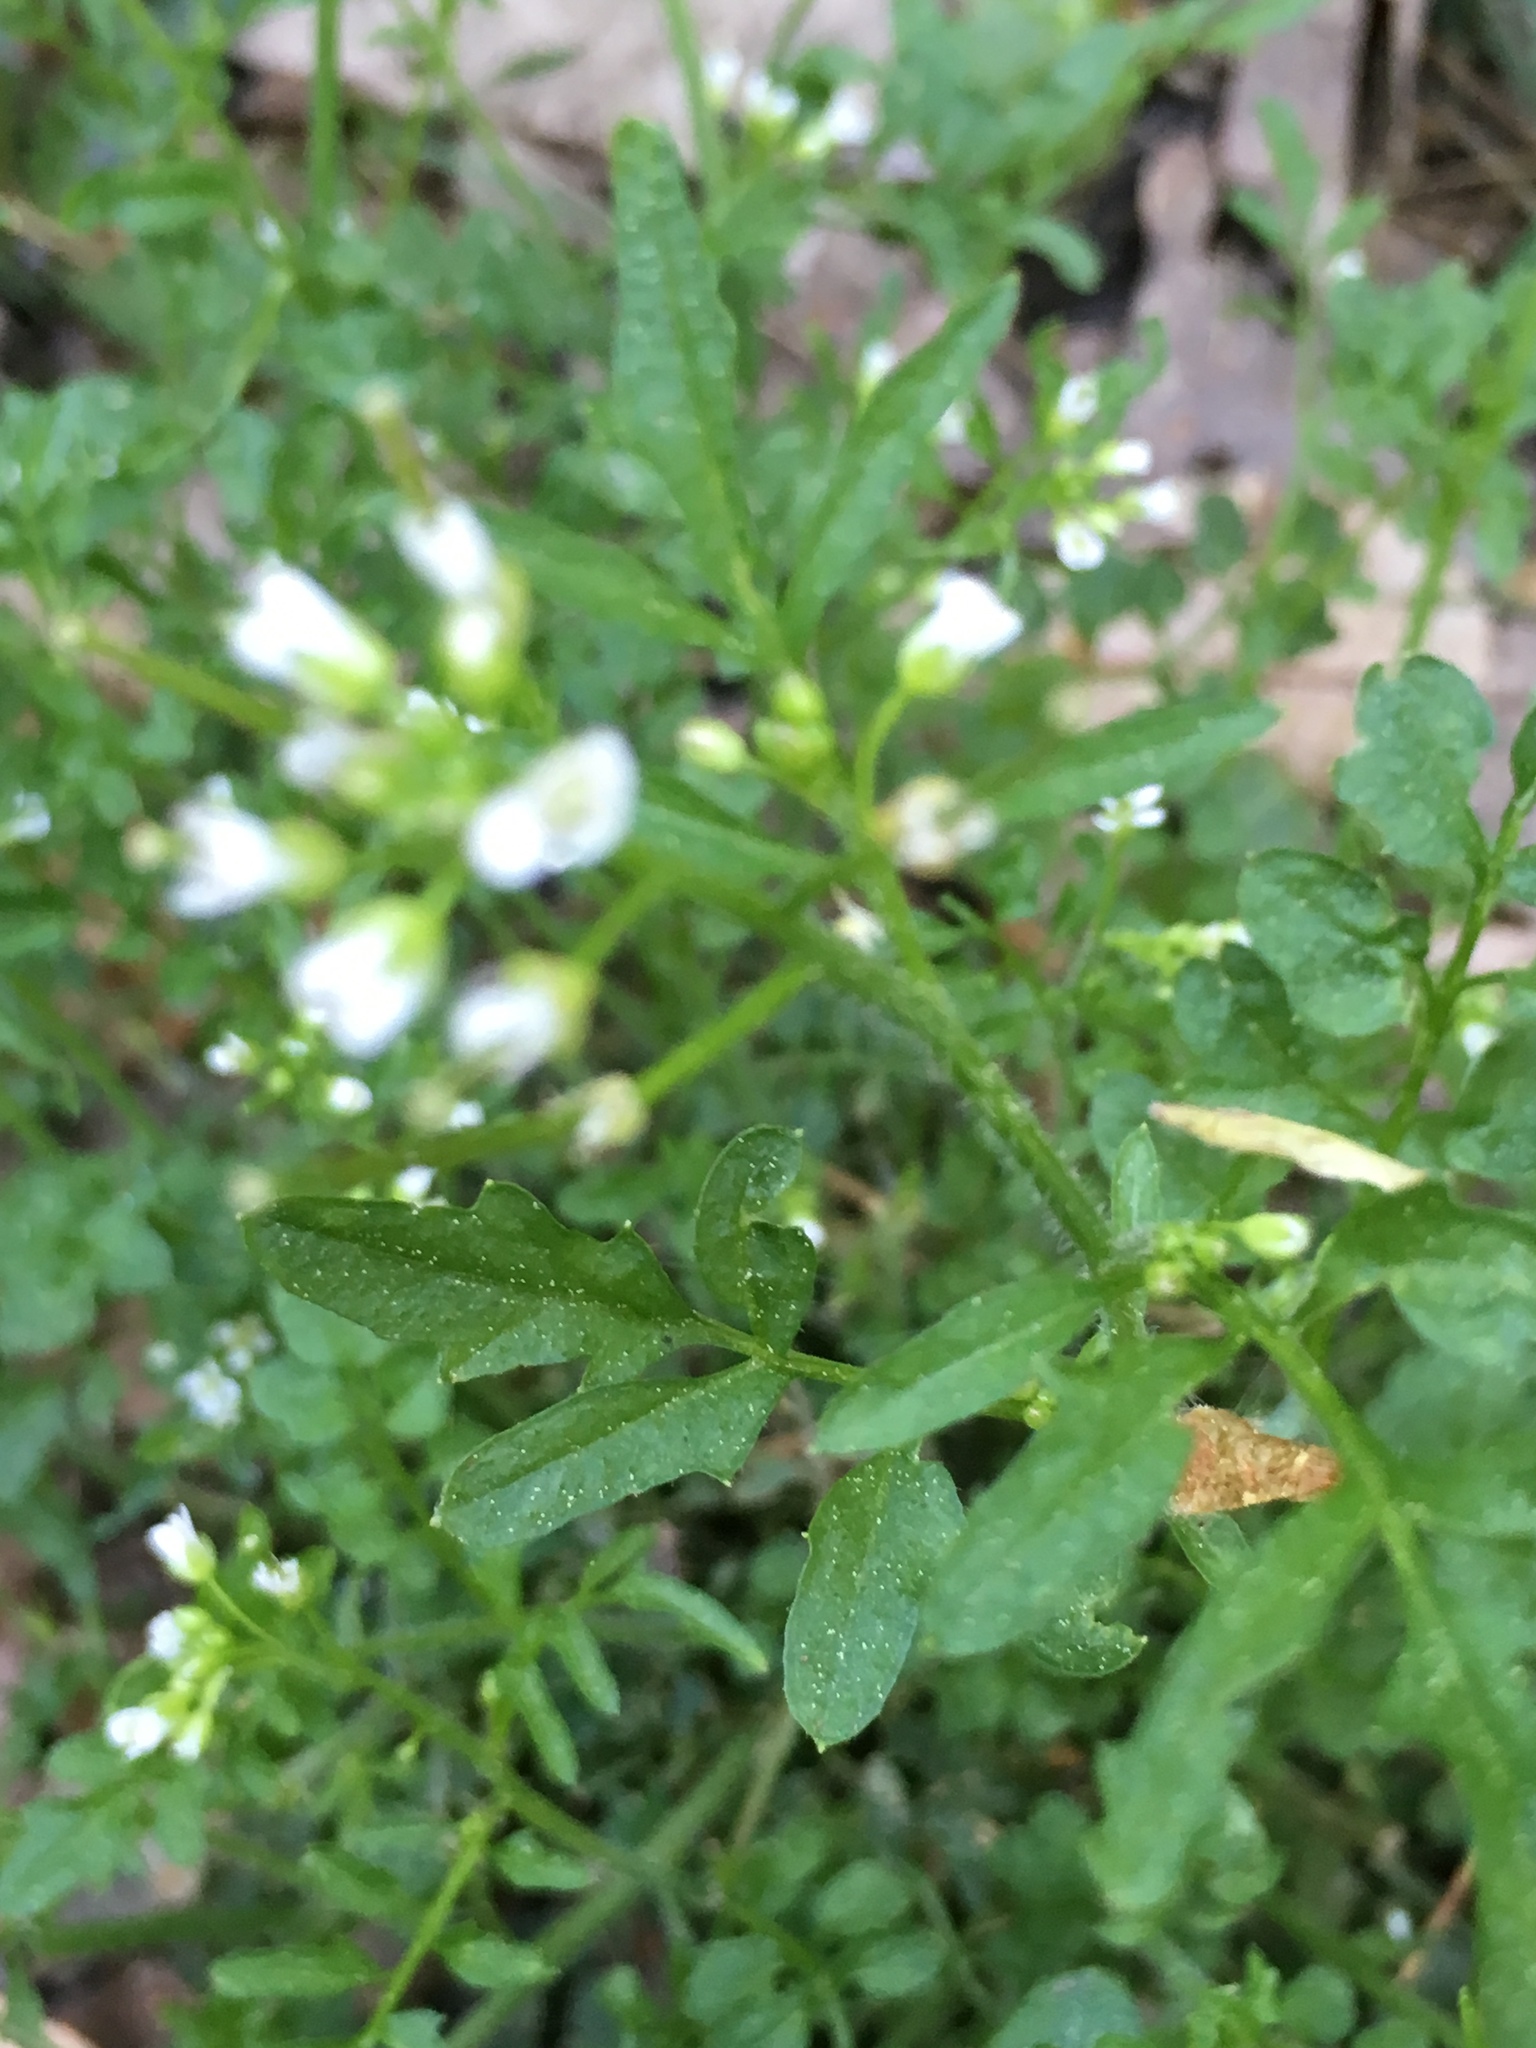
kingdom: Plantae
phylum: Tracheophyta
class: Magnoliopsida
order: Brassicales
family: Brassicaceae
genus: Cardamine
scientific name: Cardamine flexuosa
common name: Woodland bittercress
